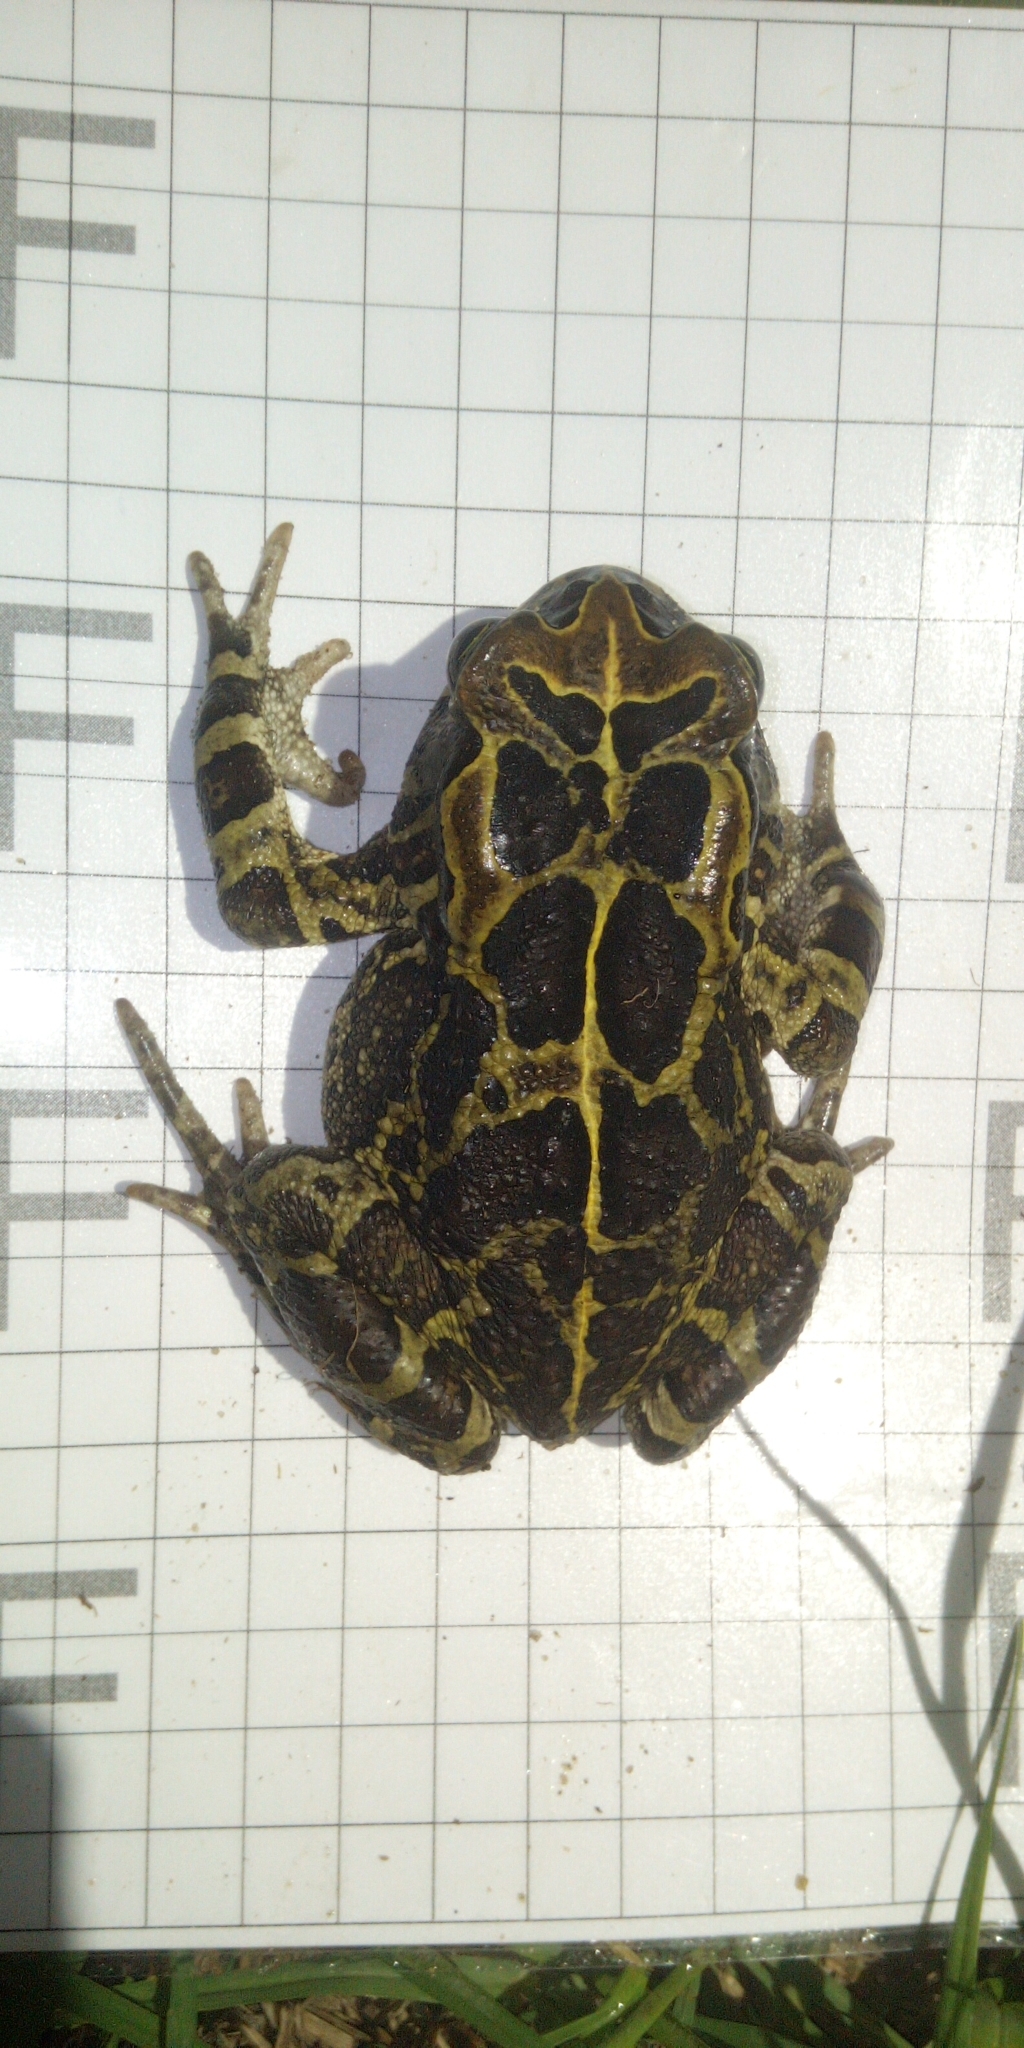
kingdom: Animalia
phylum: Chordata
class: Amphibia
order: Anura
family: Bufonidae
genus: Sclerophrys
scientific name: Sclerophrys pantherina
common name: Panther toad
